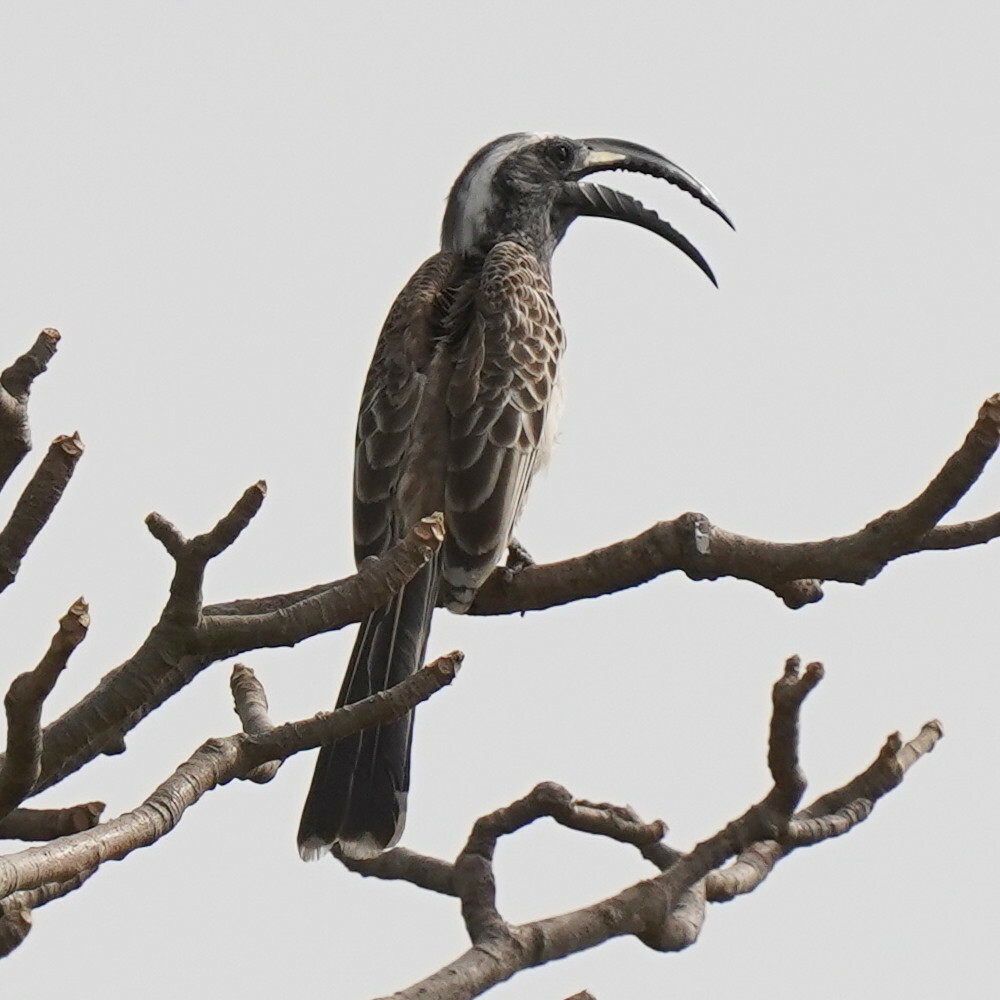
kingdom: Animalia
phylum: Chordata
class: Aves
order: Bucerotiformes
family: Bucerotidae
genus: Lophoceros
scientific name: Lophoceros nasutus
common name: African grey hornbill
